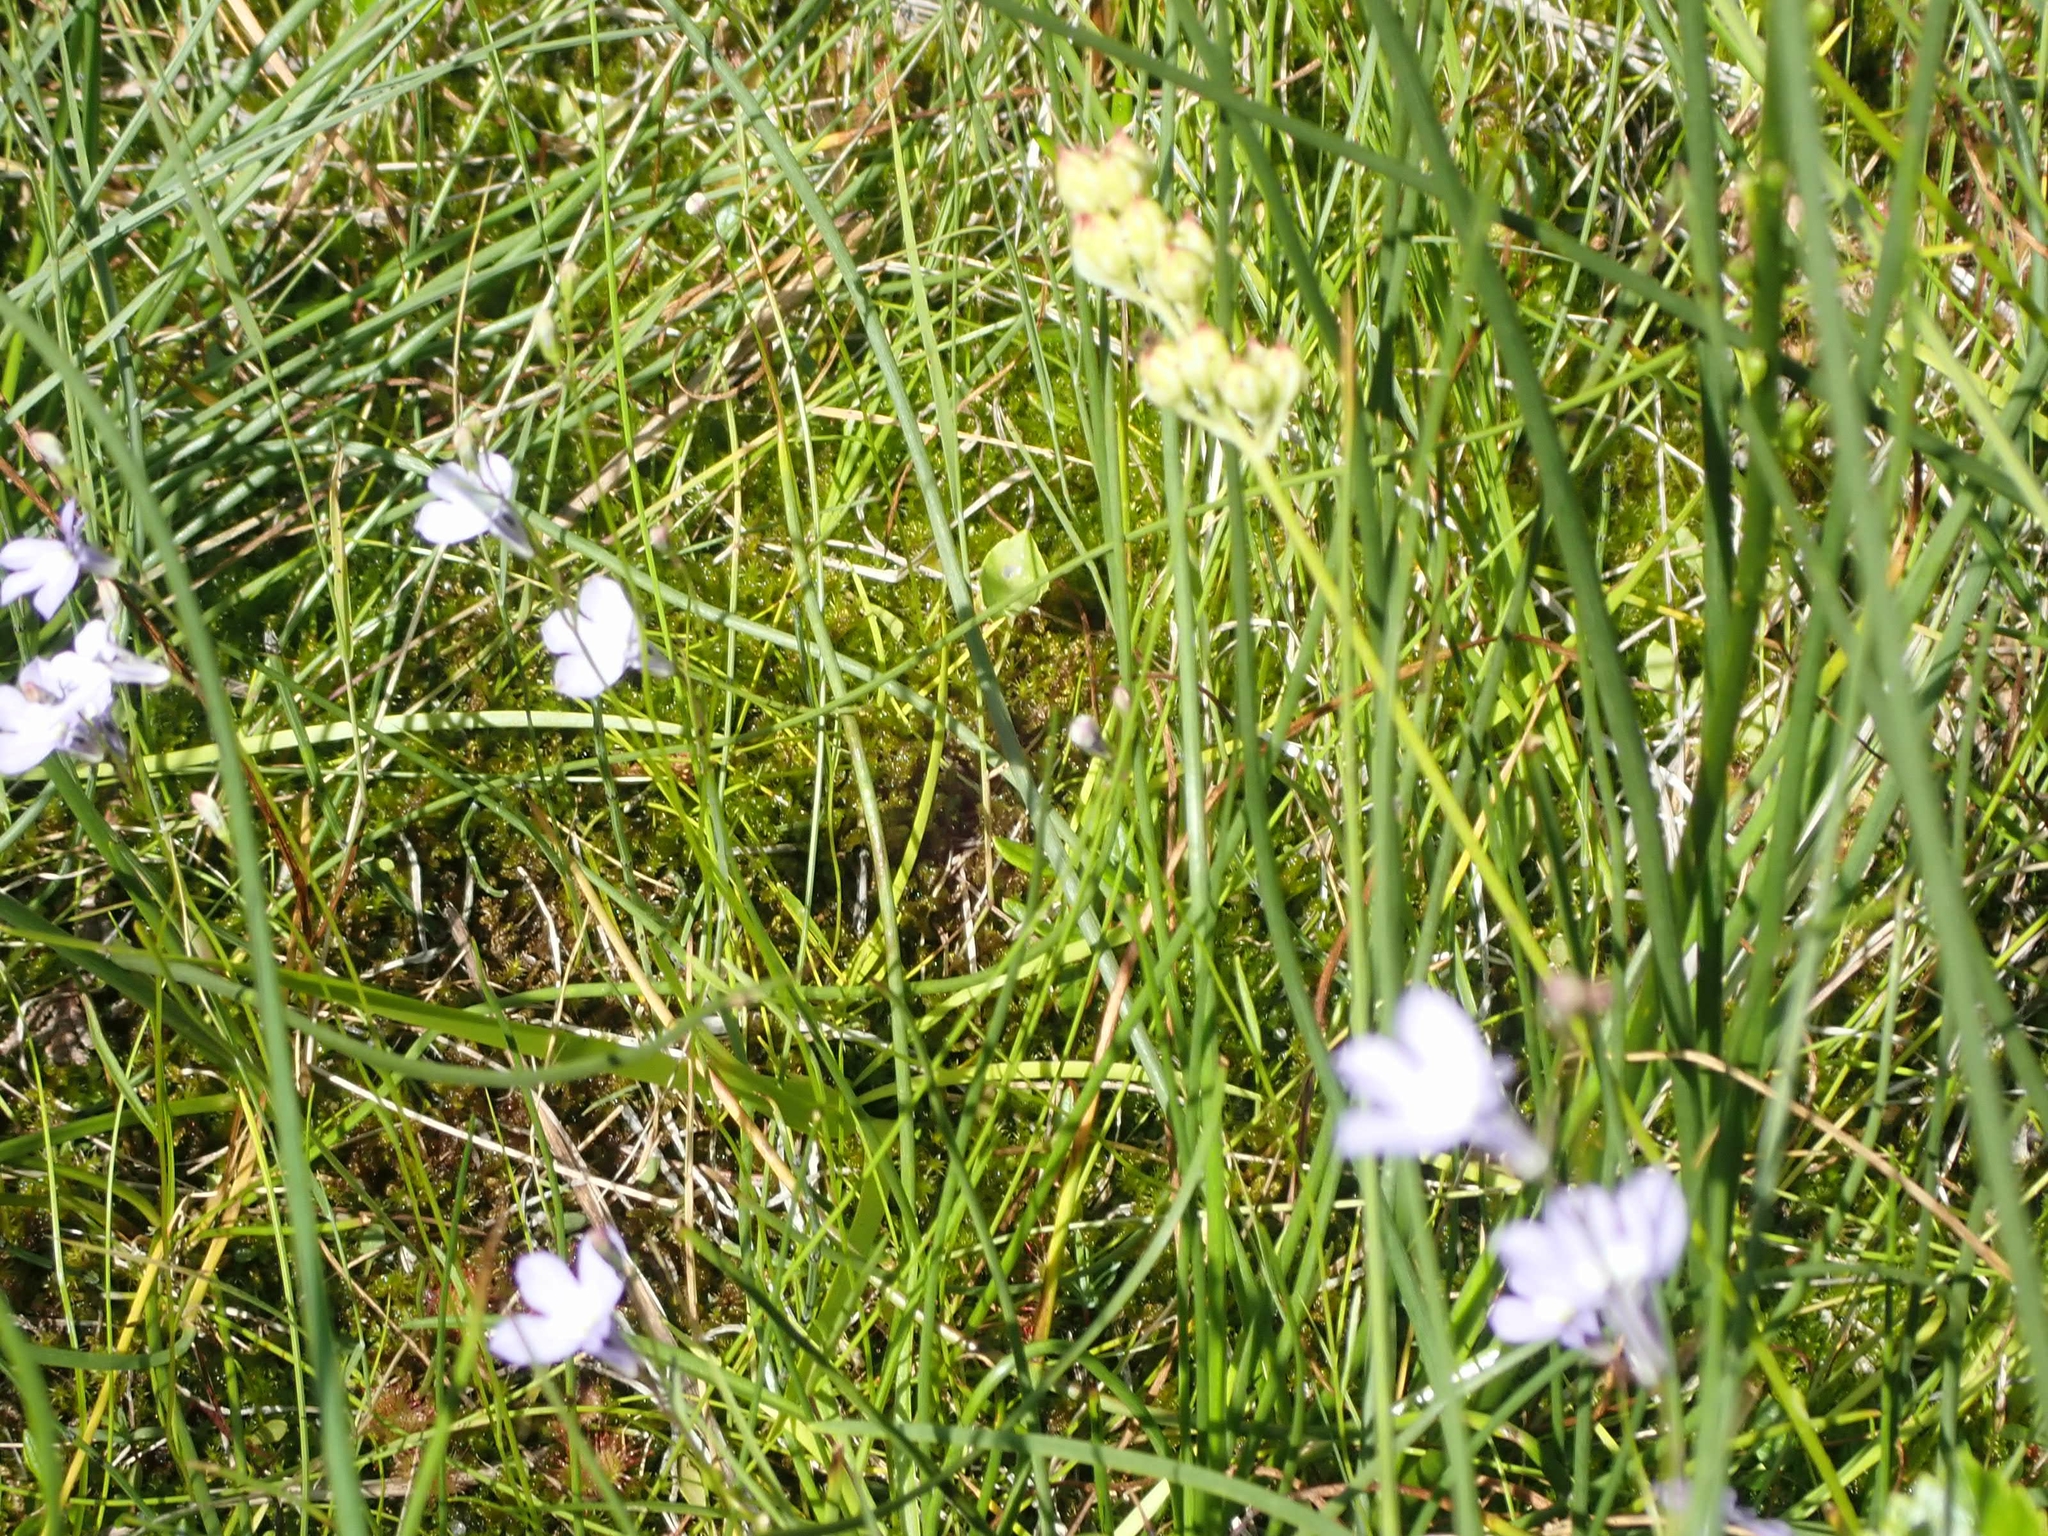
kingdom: Plantae
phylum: Tracheophyta
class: Magnoliopsida
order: Asterales
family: Campanulaceae
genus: Lobelia
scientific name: Lobelia kalmii
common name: Kalm's lobelia
